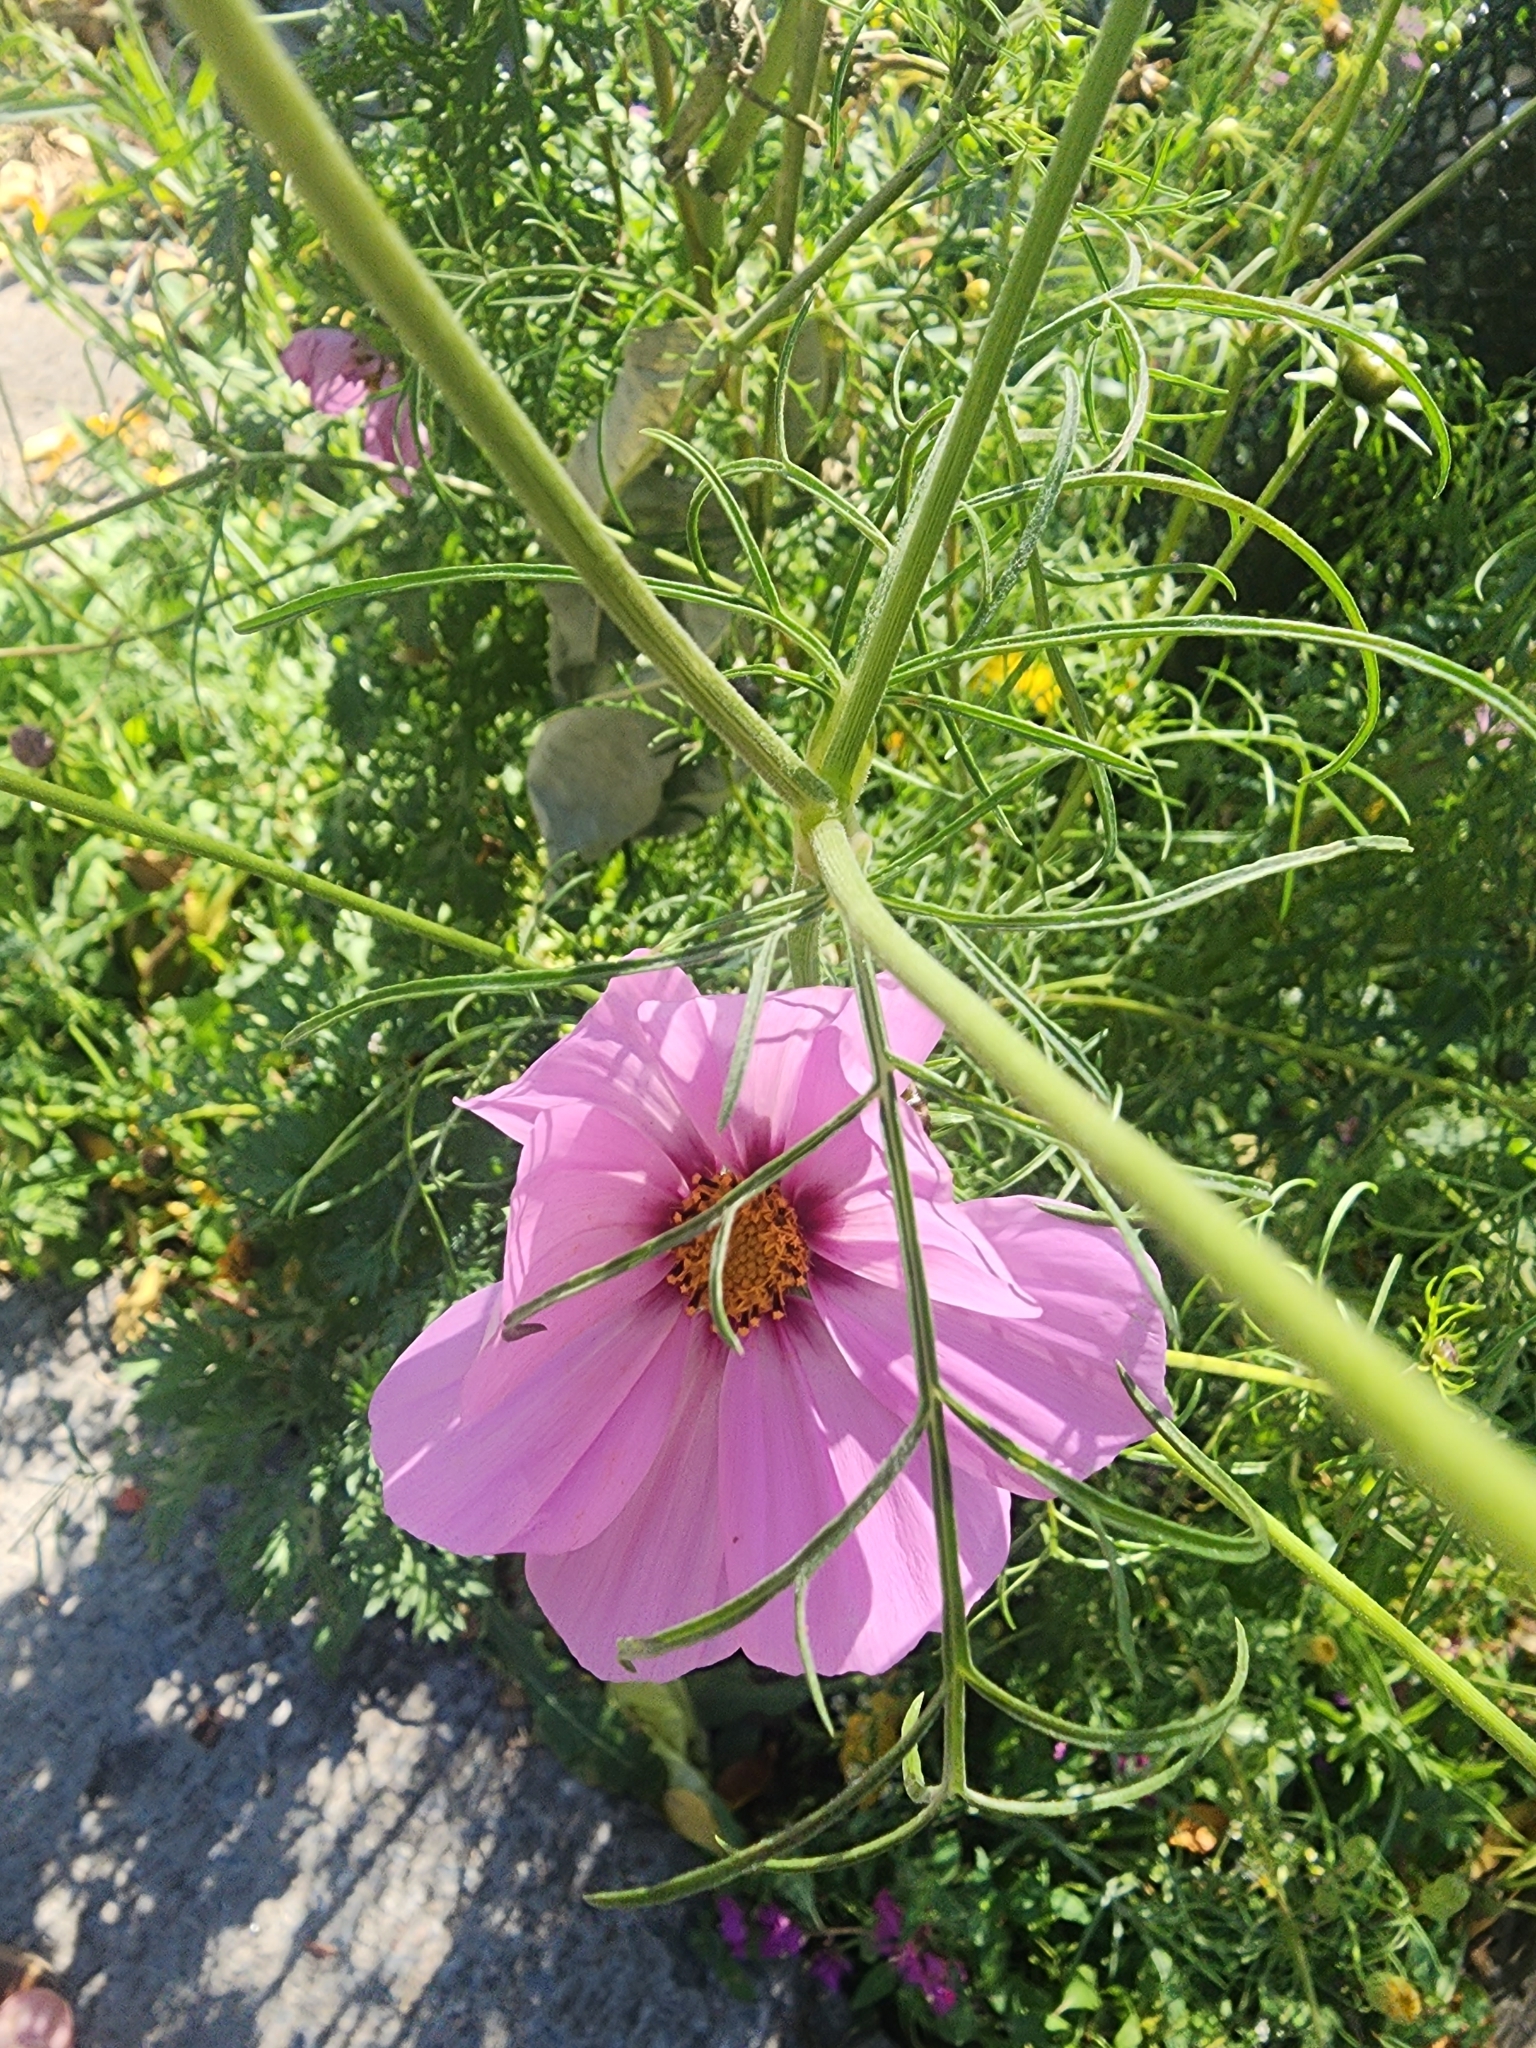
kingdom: Plantae
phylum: Tracheophyta
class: Magnoliopsida
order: Asterales
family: Asteraceae
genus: Cosmos
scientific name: Cosmos bipinnatus
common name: Garden cosmos
